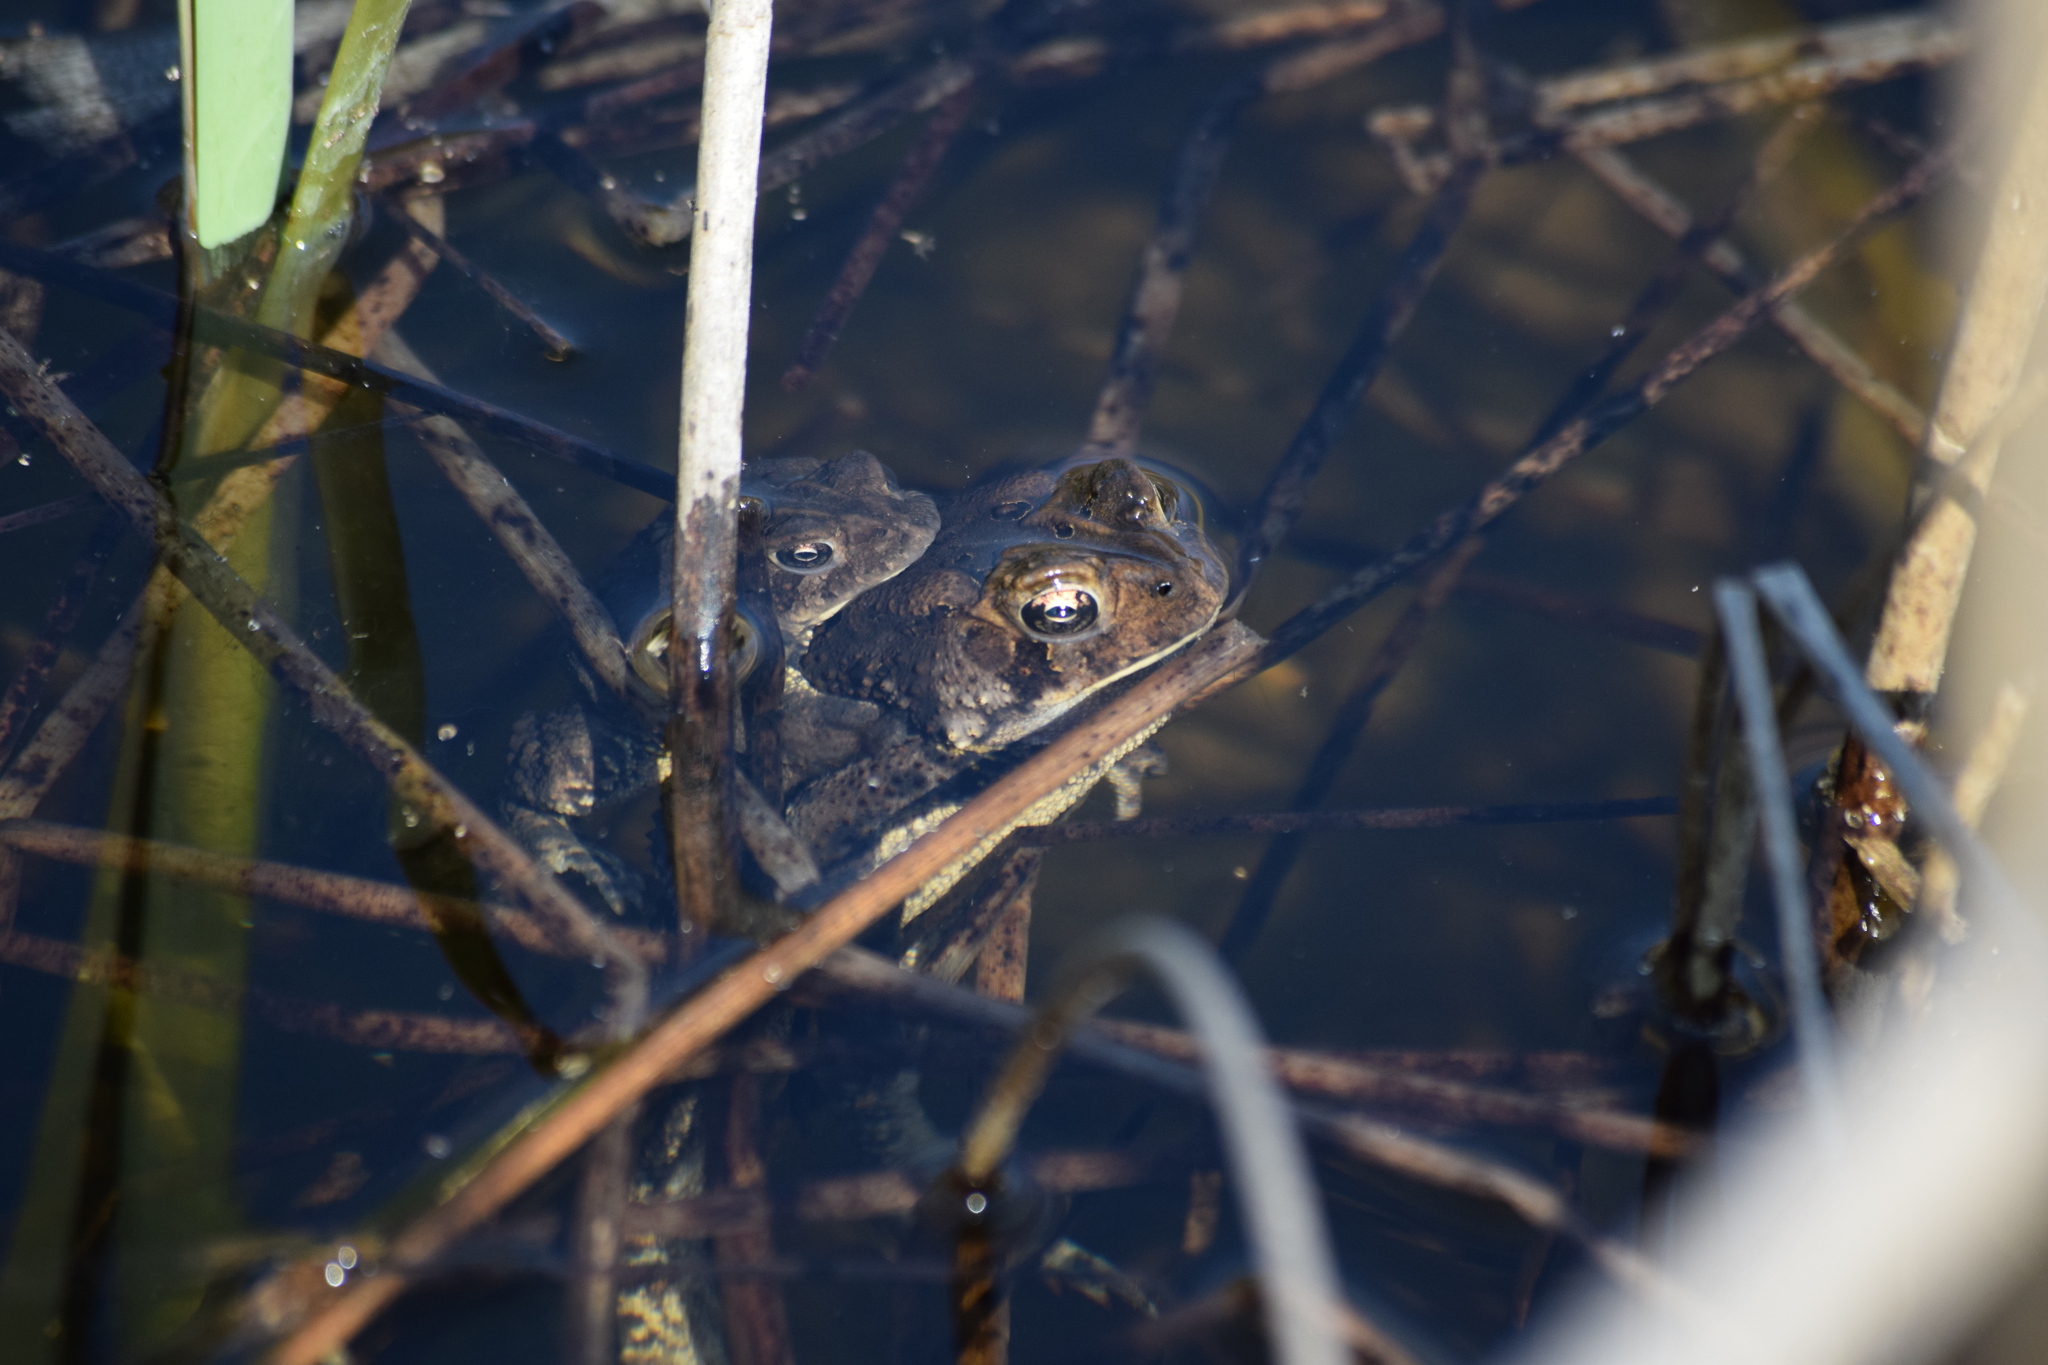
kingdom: Animalia
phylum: Chordata
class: Amphibia
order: Anura
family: Bufonidae
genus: Anaxyrus
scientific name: Anaxyrus americanus
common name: American toad
